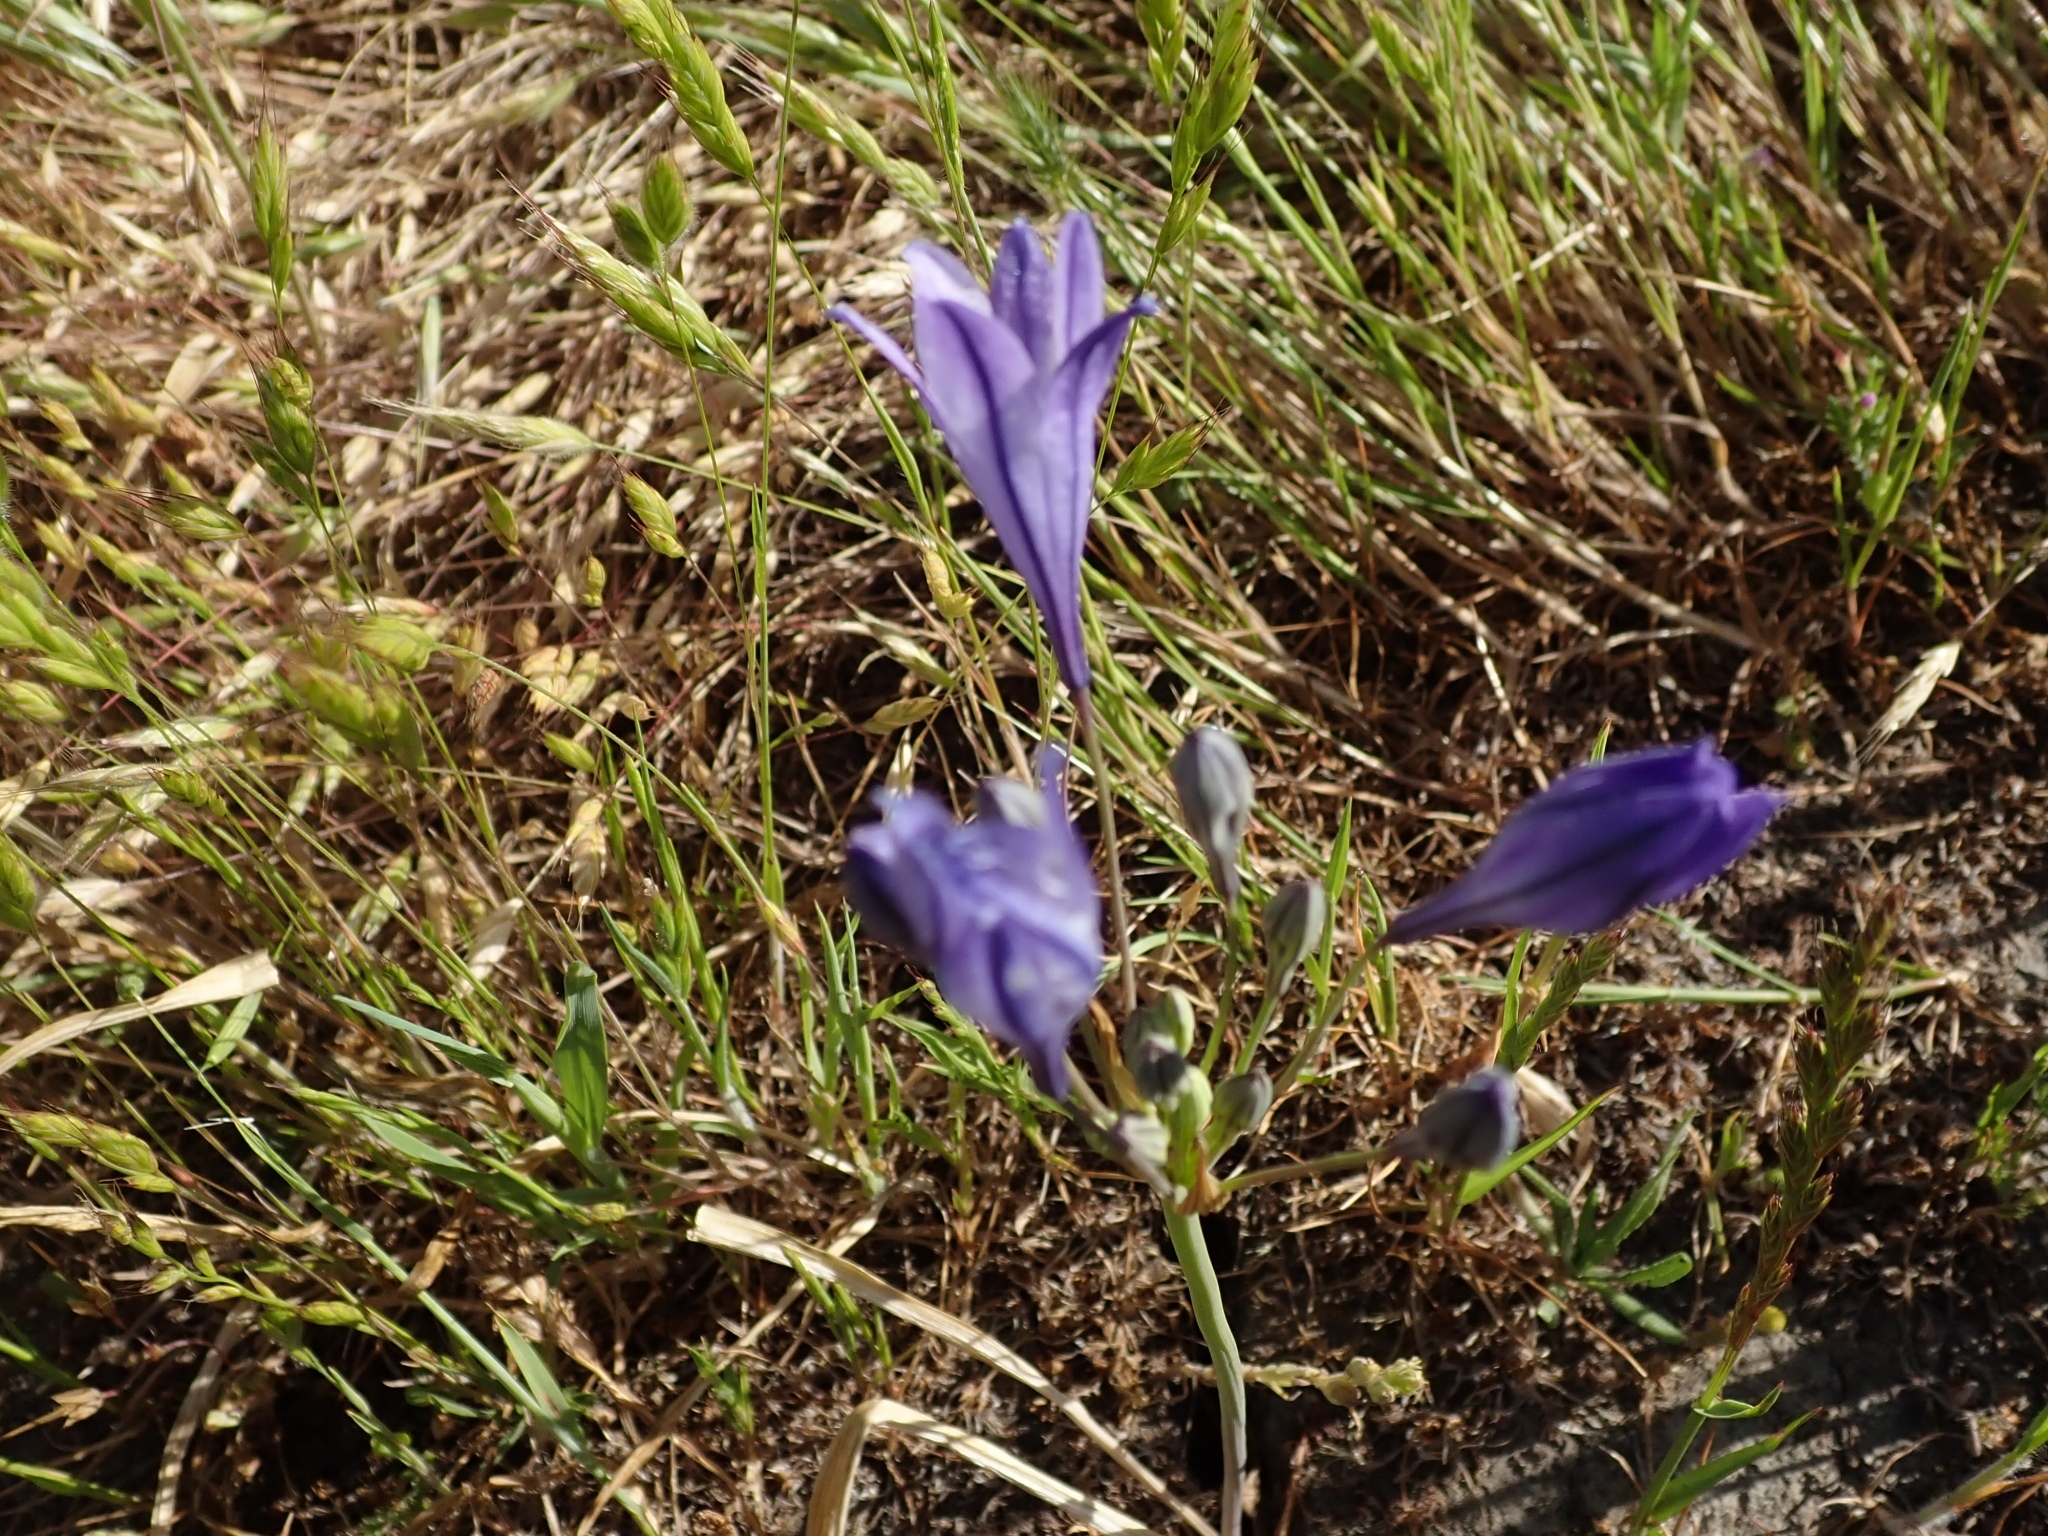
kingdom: Plantae
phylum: Tracheophyta
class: Liliopsida
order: Asparagales
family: Asparagaceae
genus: Triteleia
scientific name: Triteleia laxa
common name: Triplet-lily
